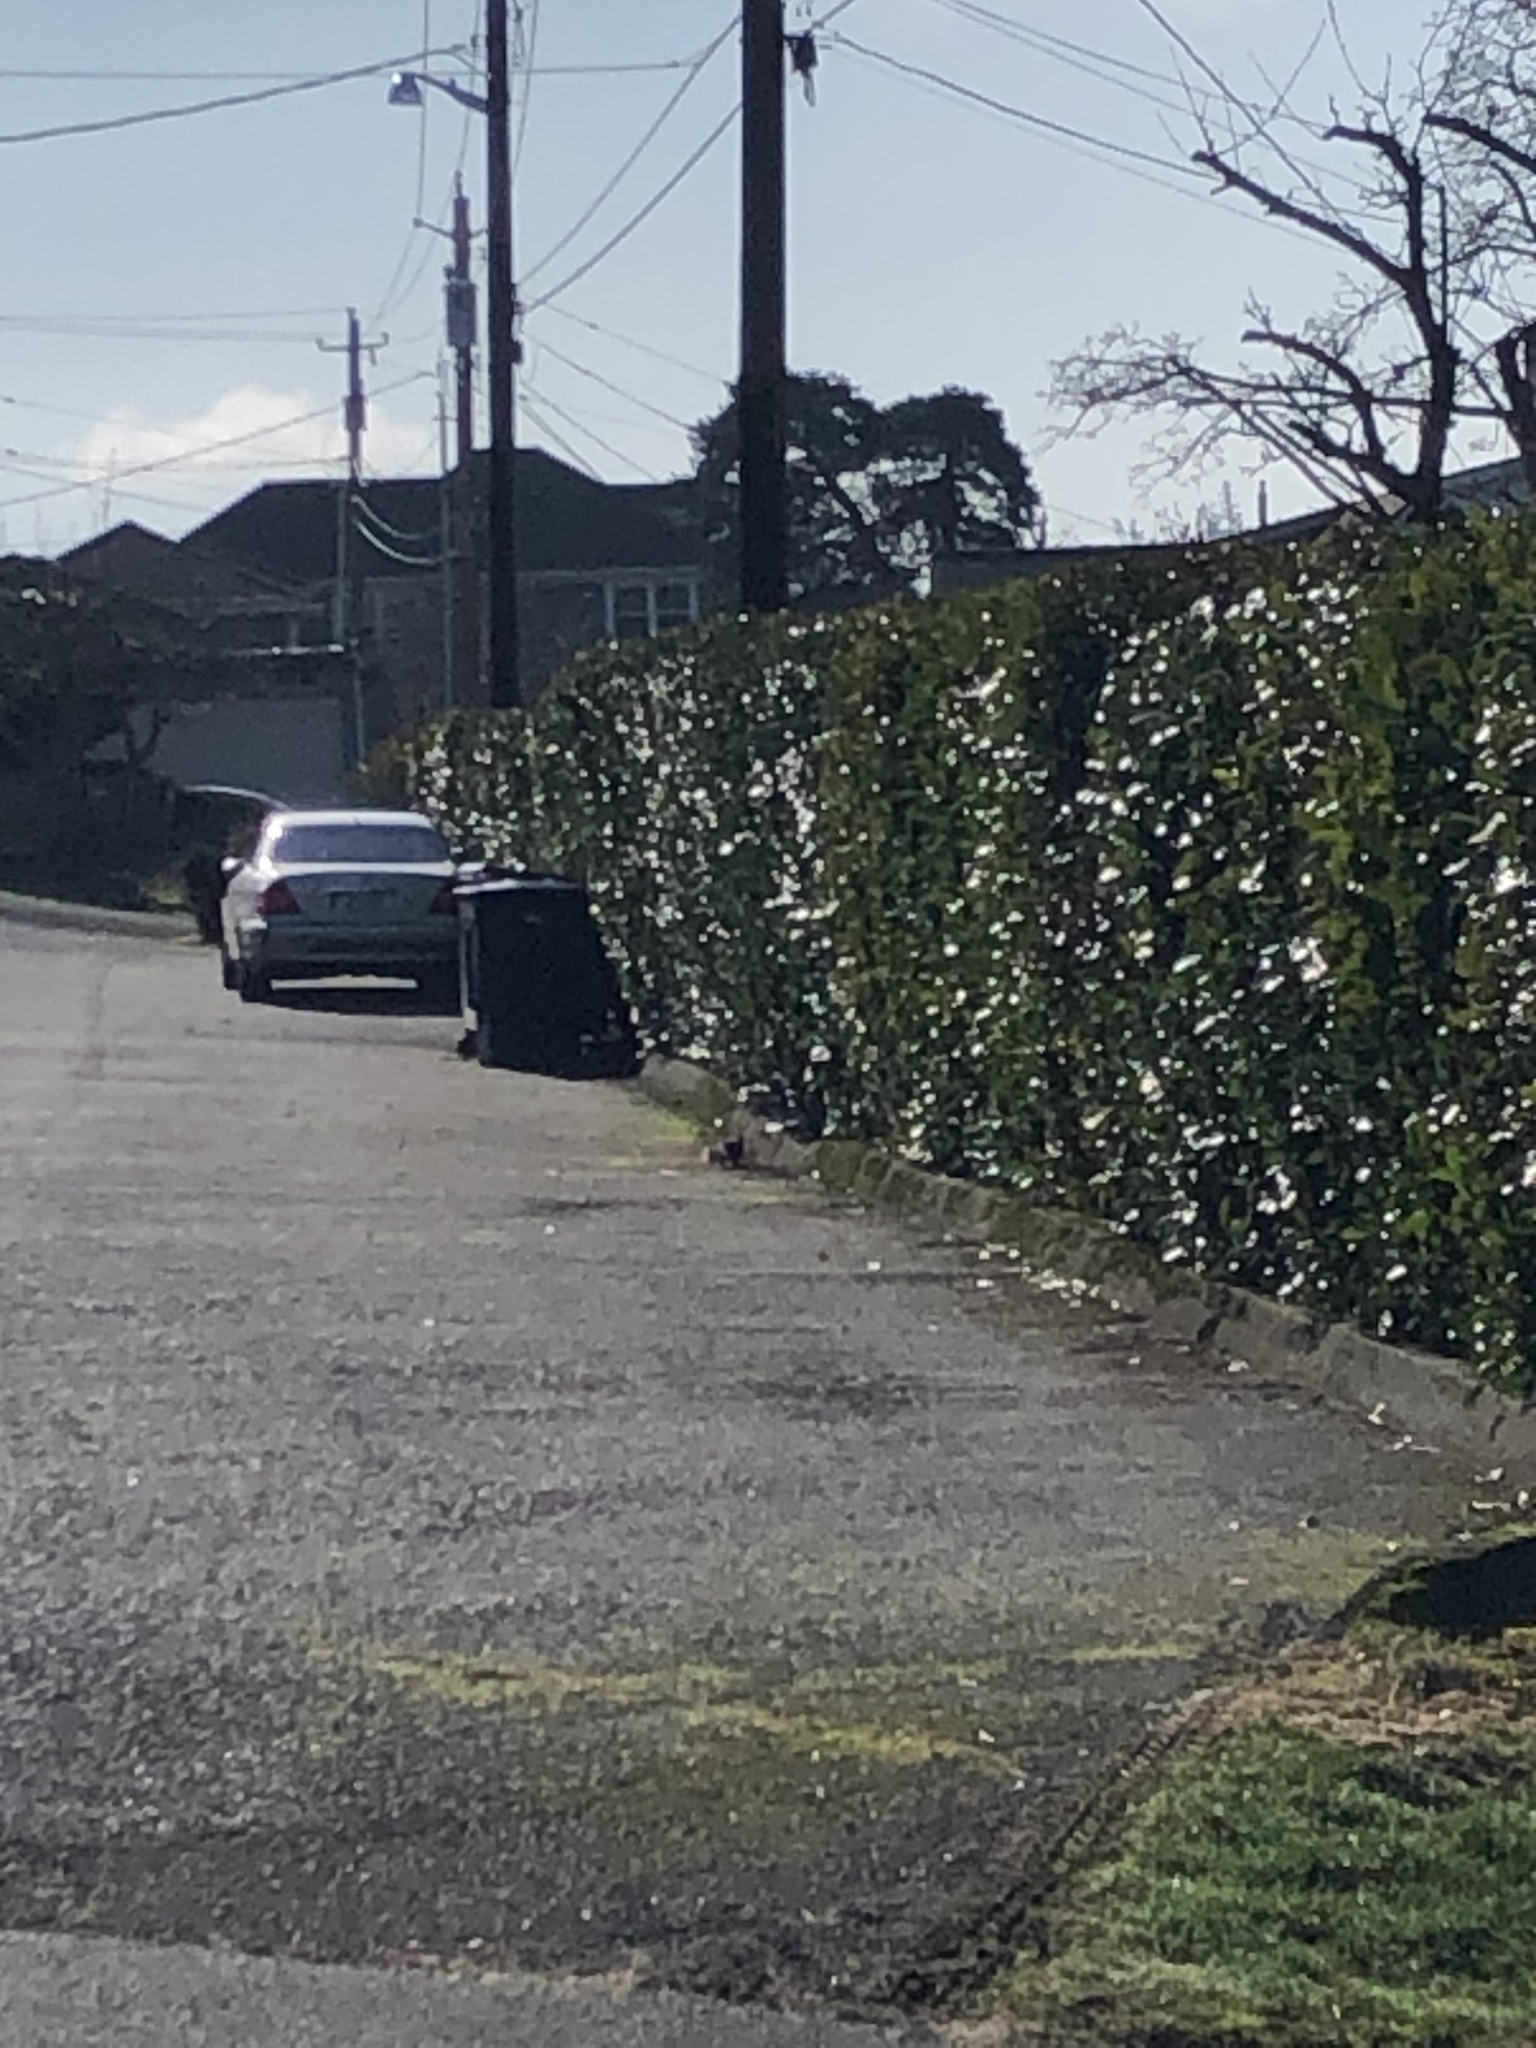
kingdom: Animalia
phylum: Chordata
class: Mammalia
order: Rodentia
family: Sciuridae
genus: Sciurus
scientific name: Sciurus carolinensis
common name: Eastern gray squirrel
